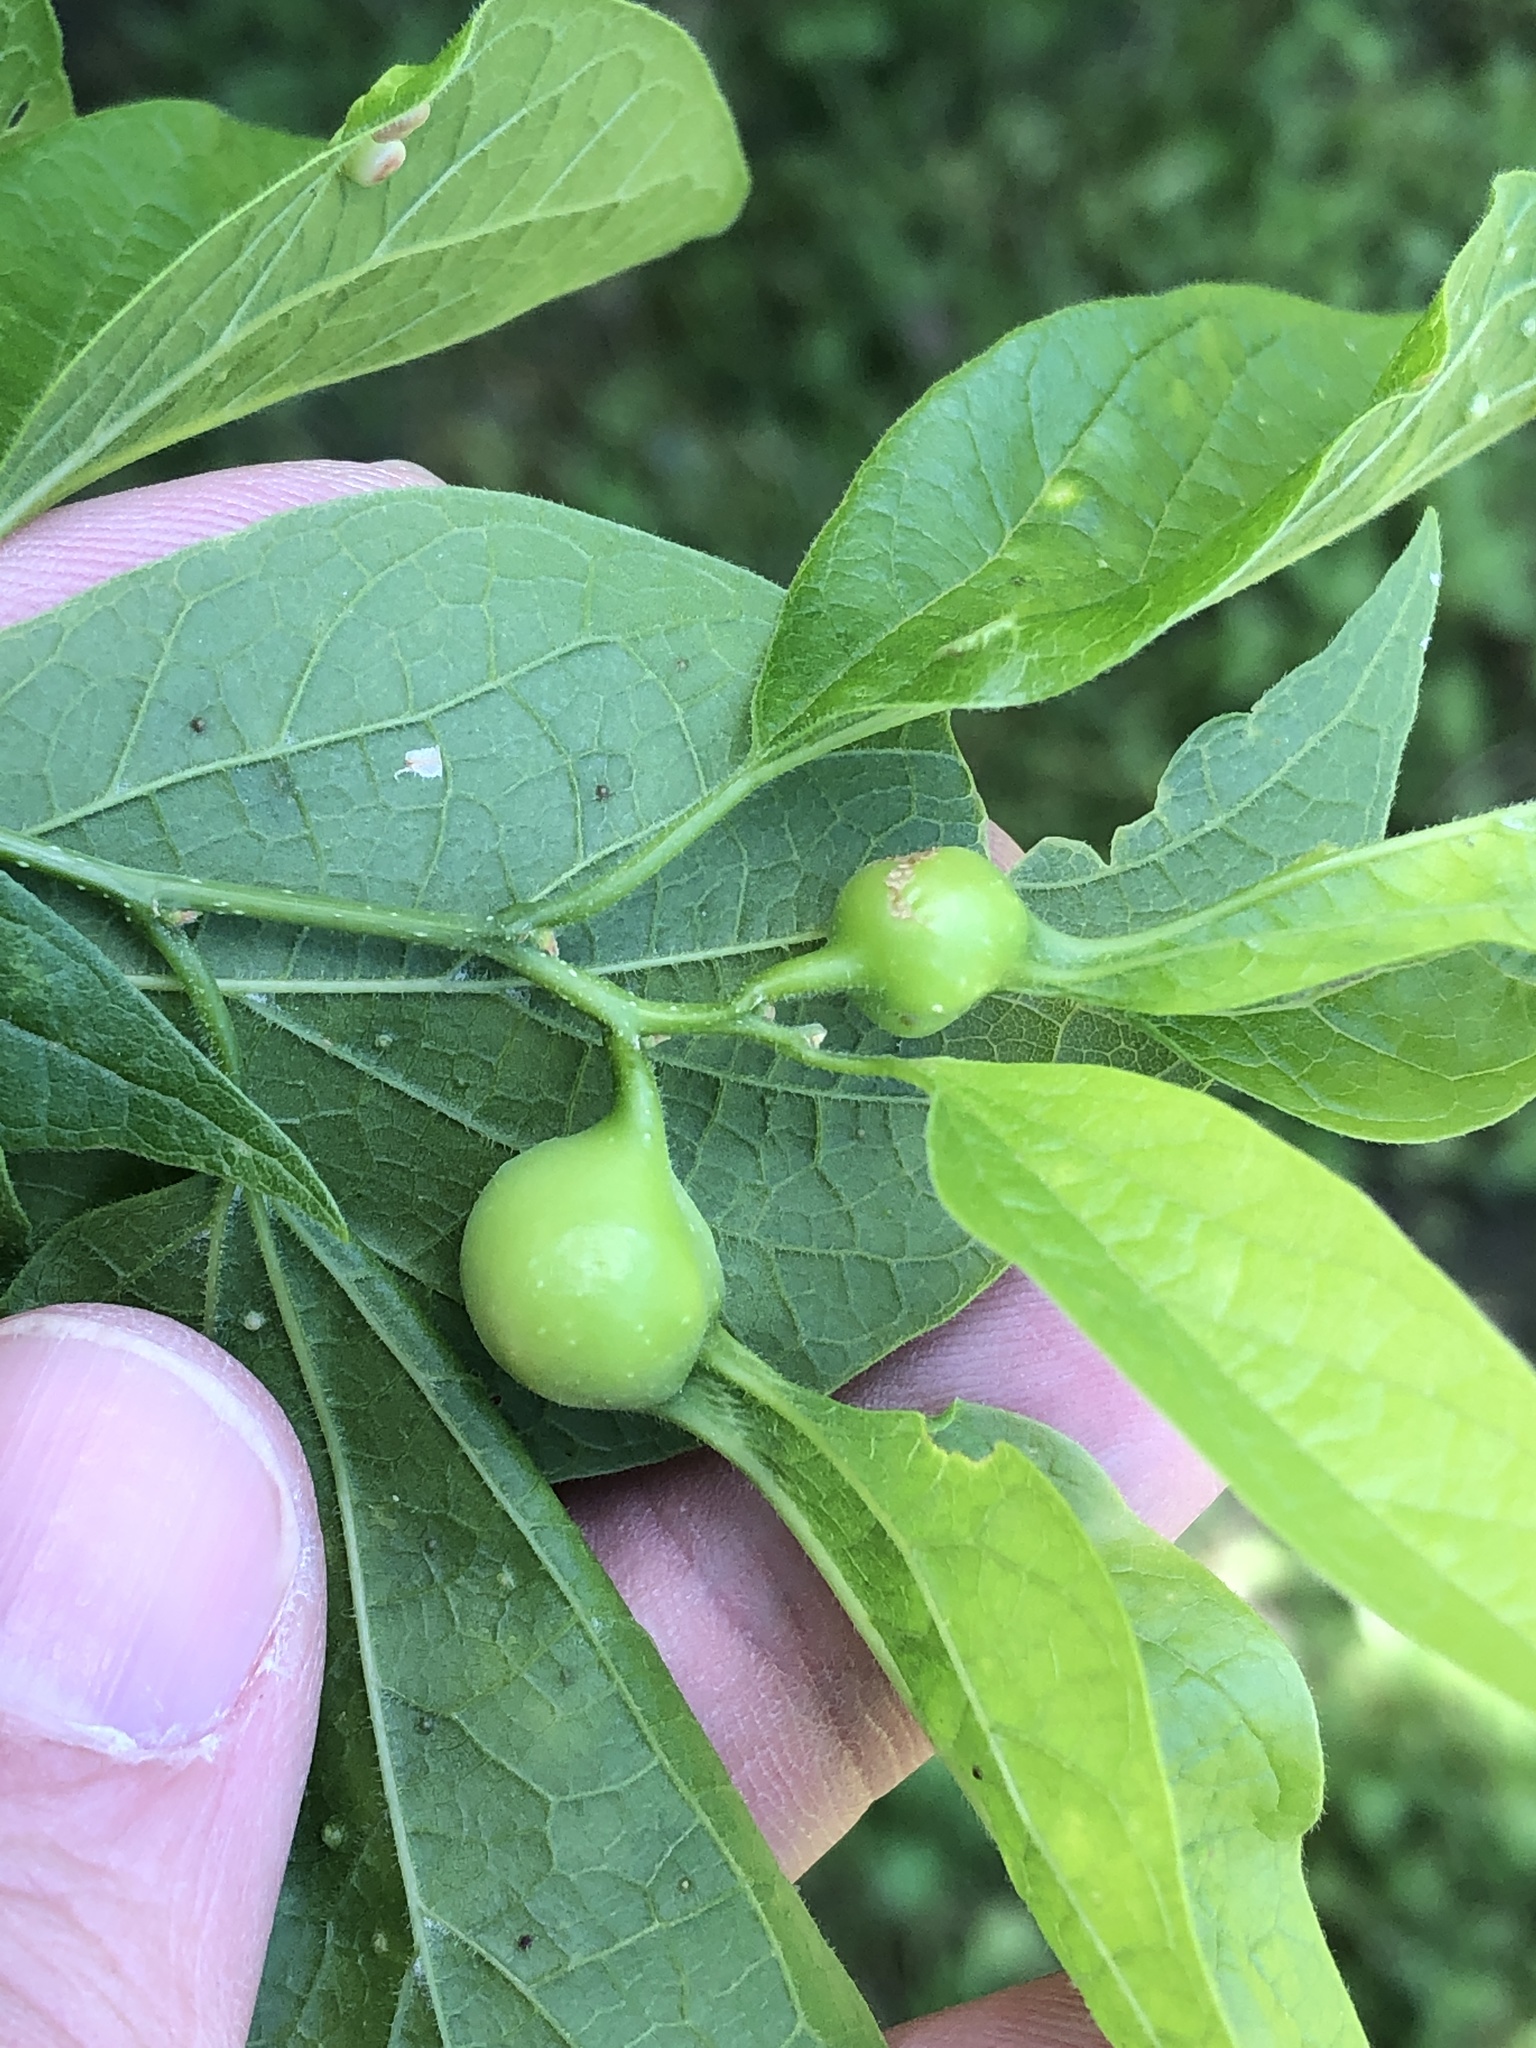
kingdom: Animalia
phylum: Arthropoda
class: Insecta
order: Hemiptera
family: Aphalaridae
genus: Pachypsylla
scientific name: Pachypsylla venusta
